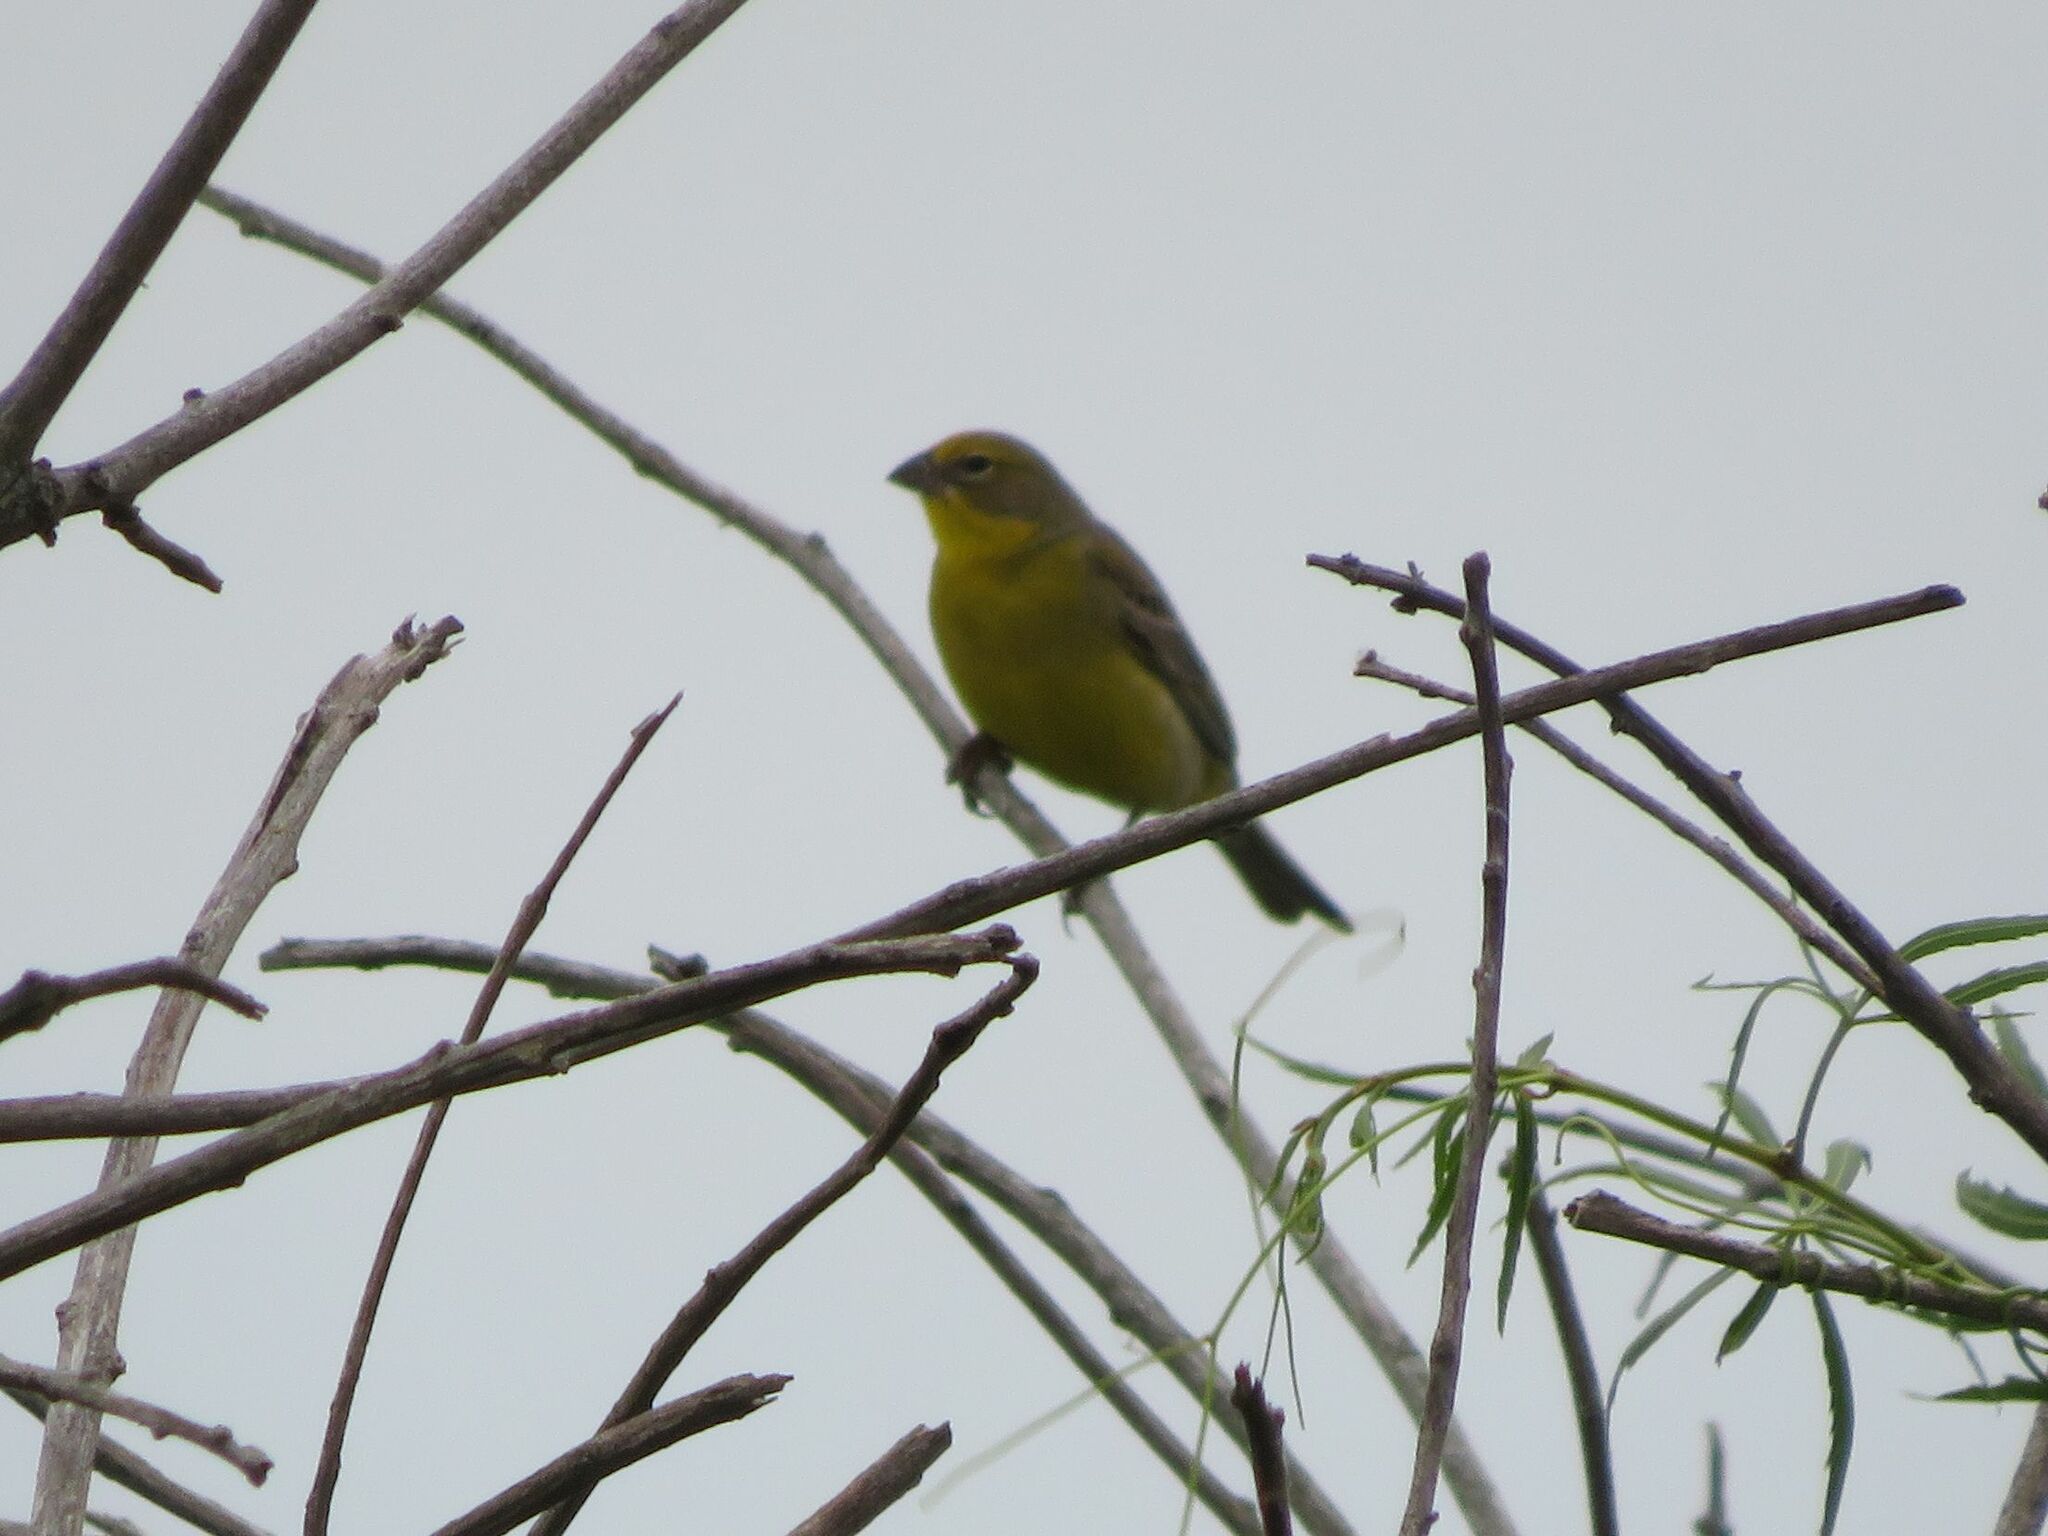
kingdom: Animalia
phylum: Chordata
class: Aves
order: Passeriformes
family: Thraupidae
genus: Sicalis
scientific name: Sicalis luteola
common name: Grassland yellow-finch
